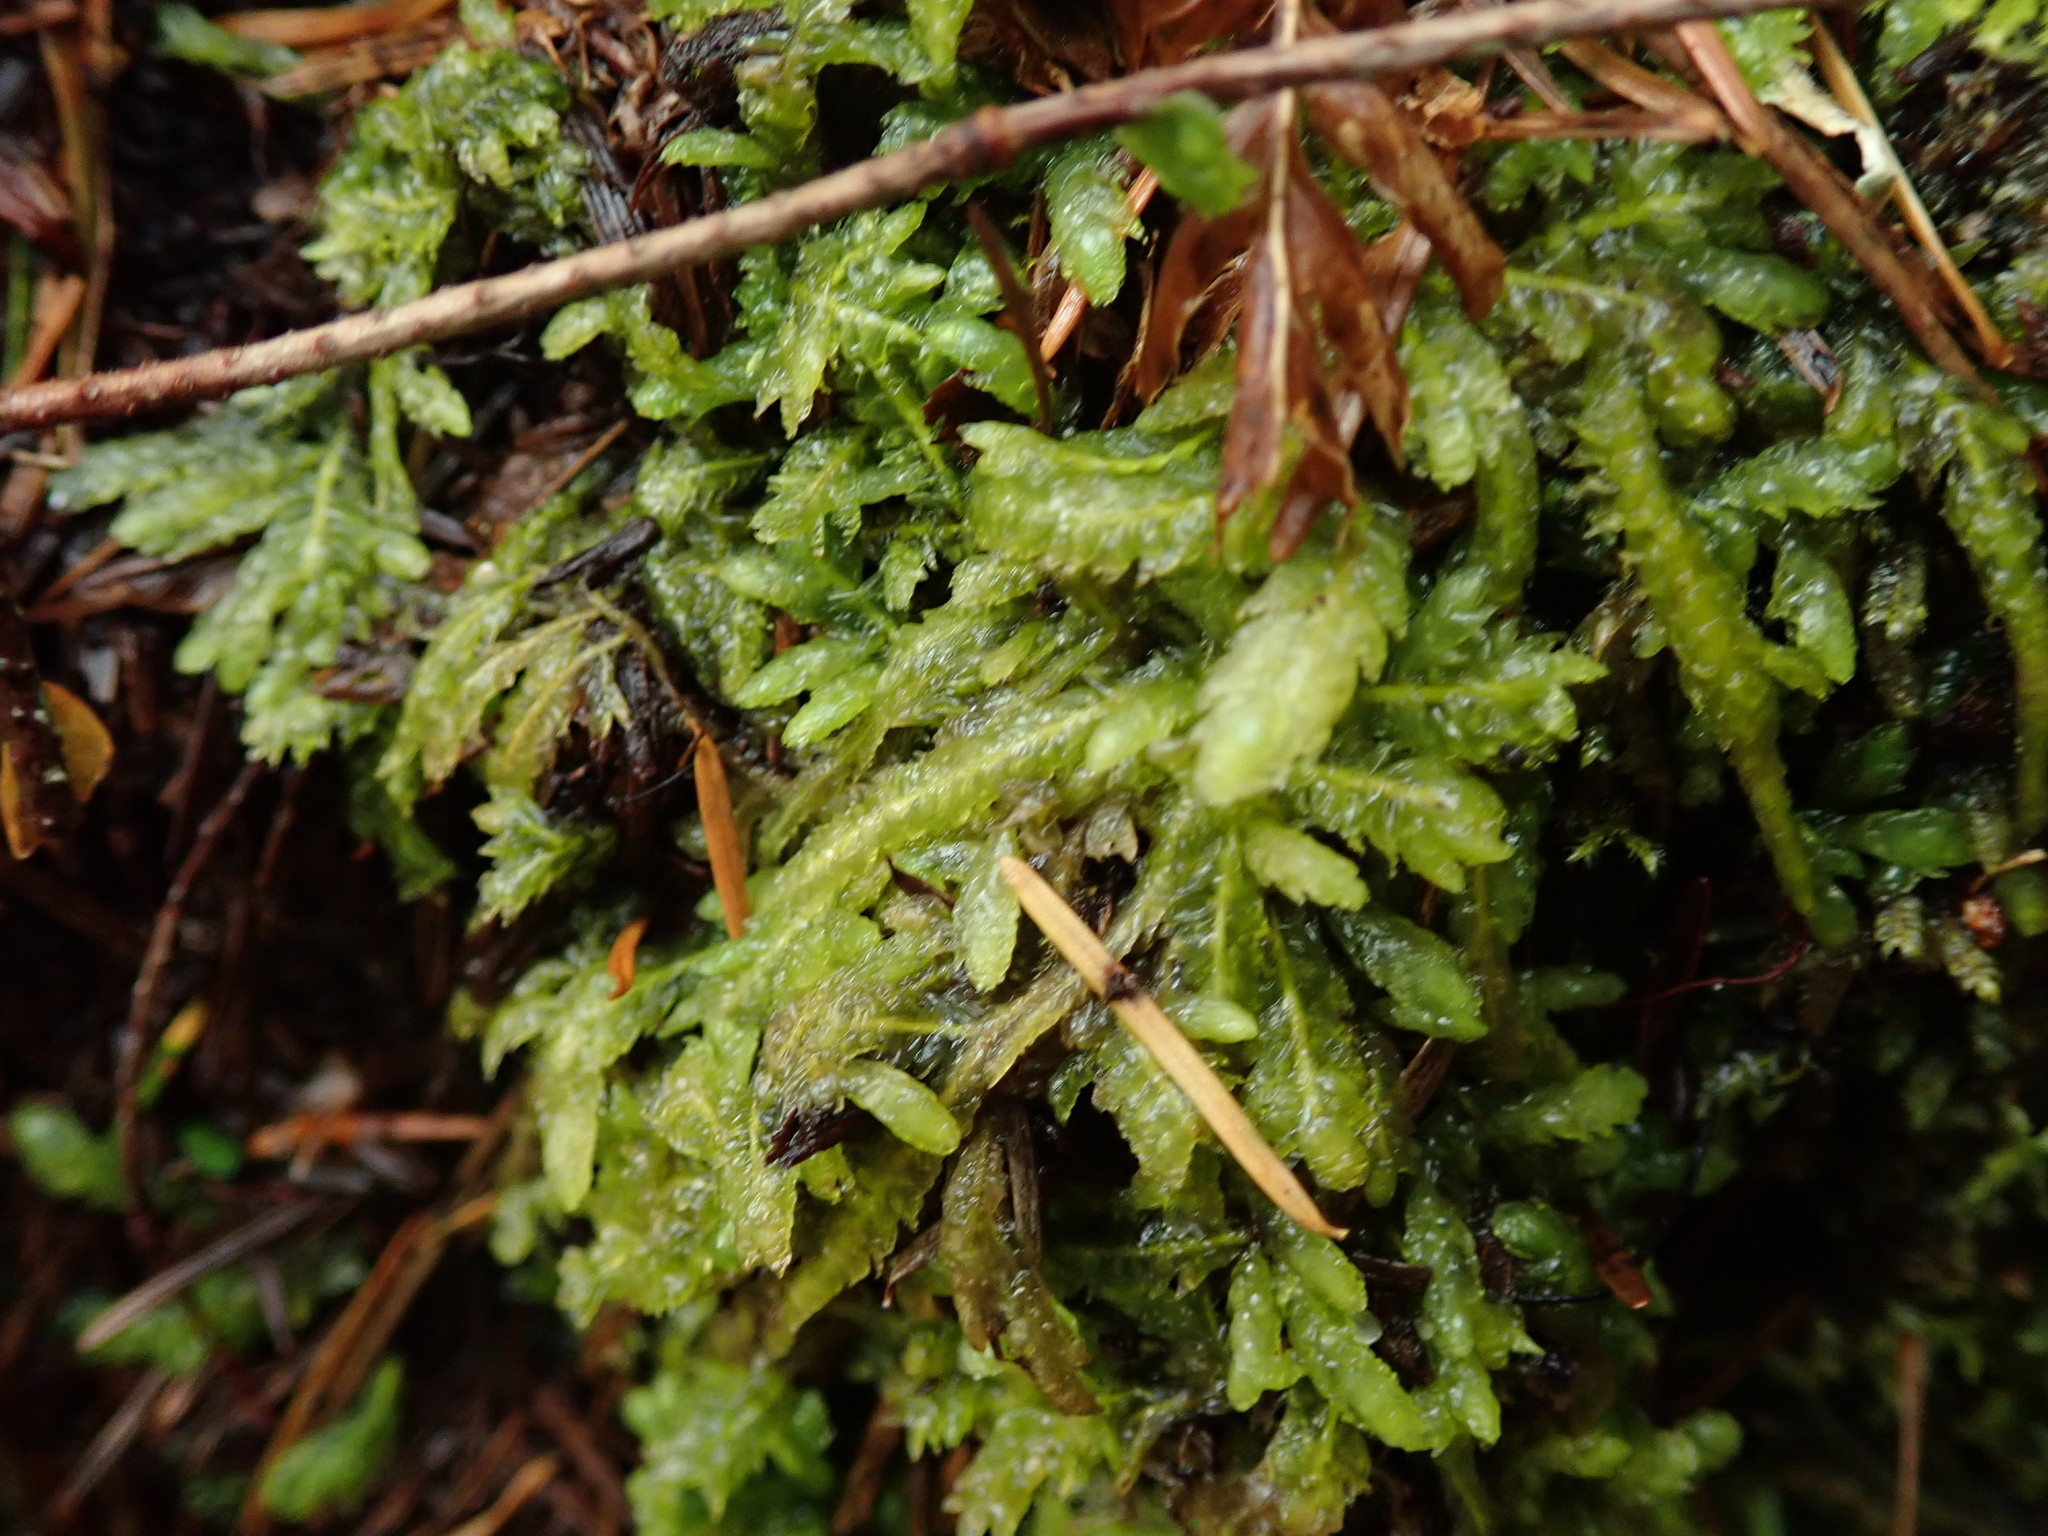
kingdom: Plantae
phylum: Bryophyta
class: Bryopsida
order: Hypnales
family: Plagiotheciaceae
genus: Plagiothecium
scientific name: Plagiothecium undulatum
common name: Waved silk-moss
